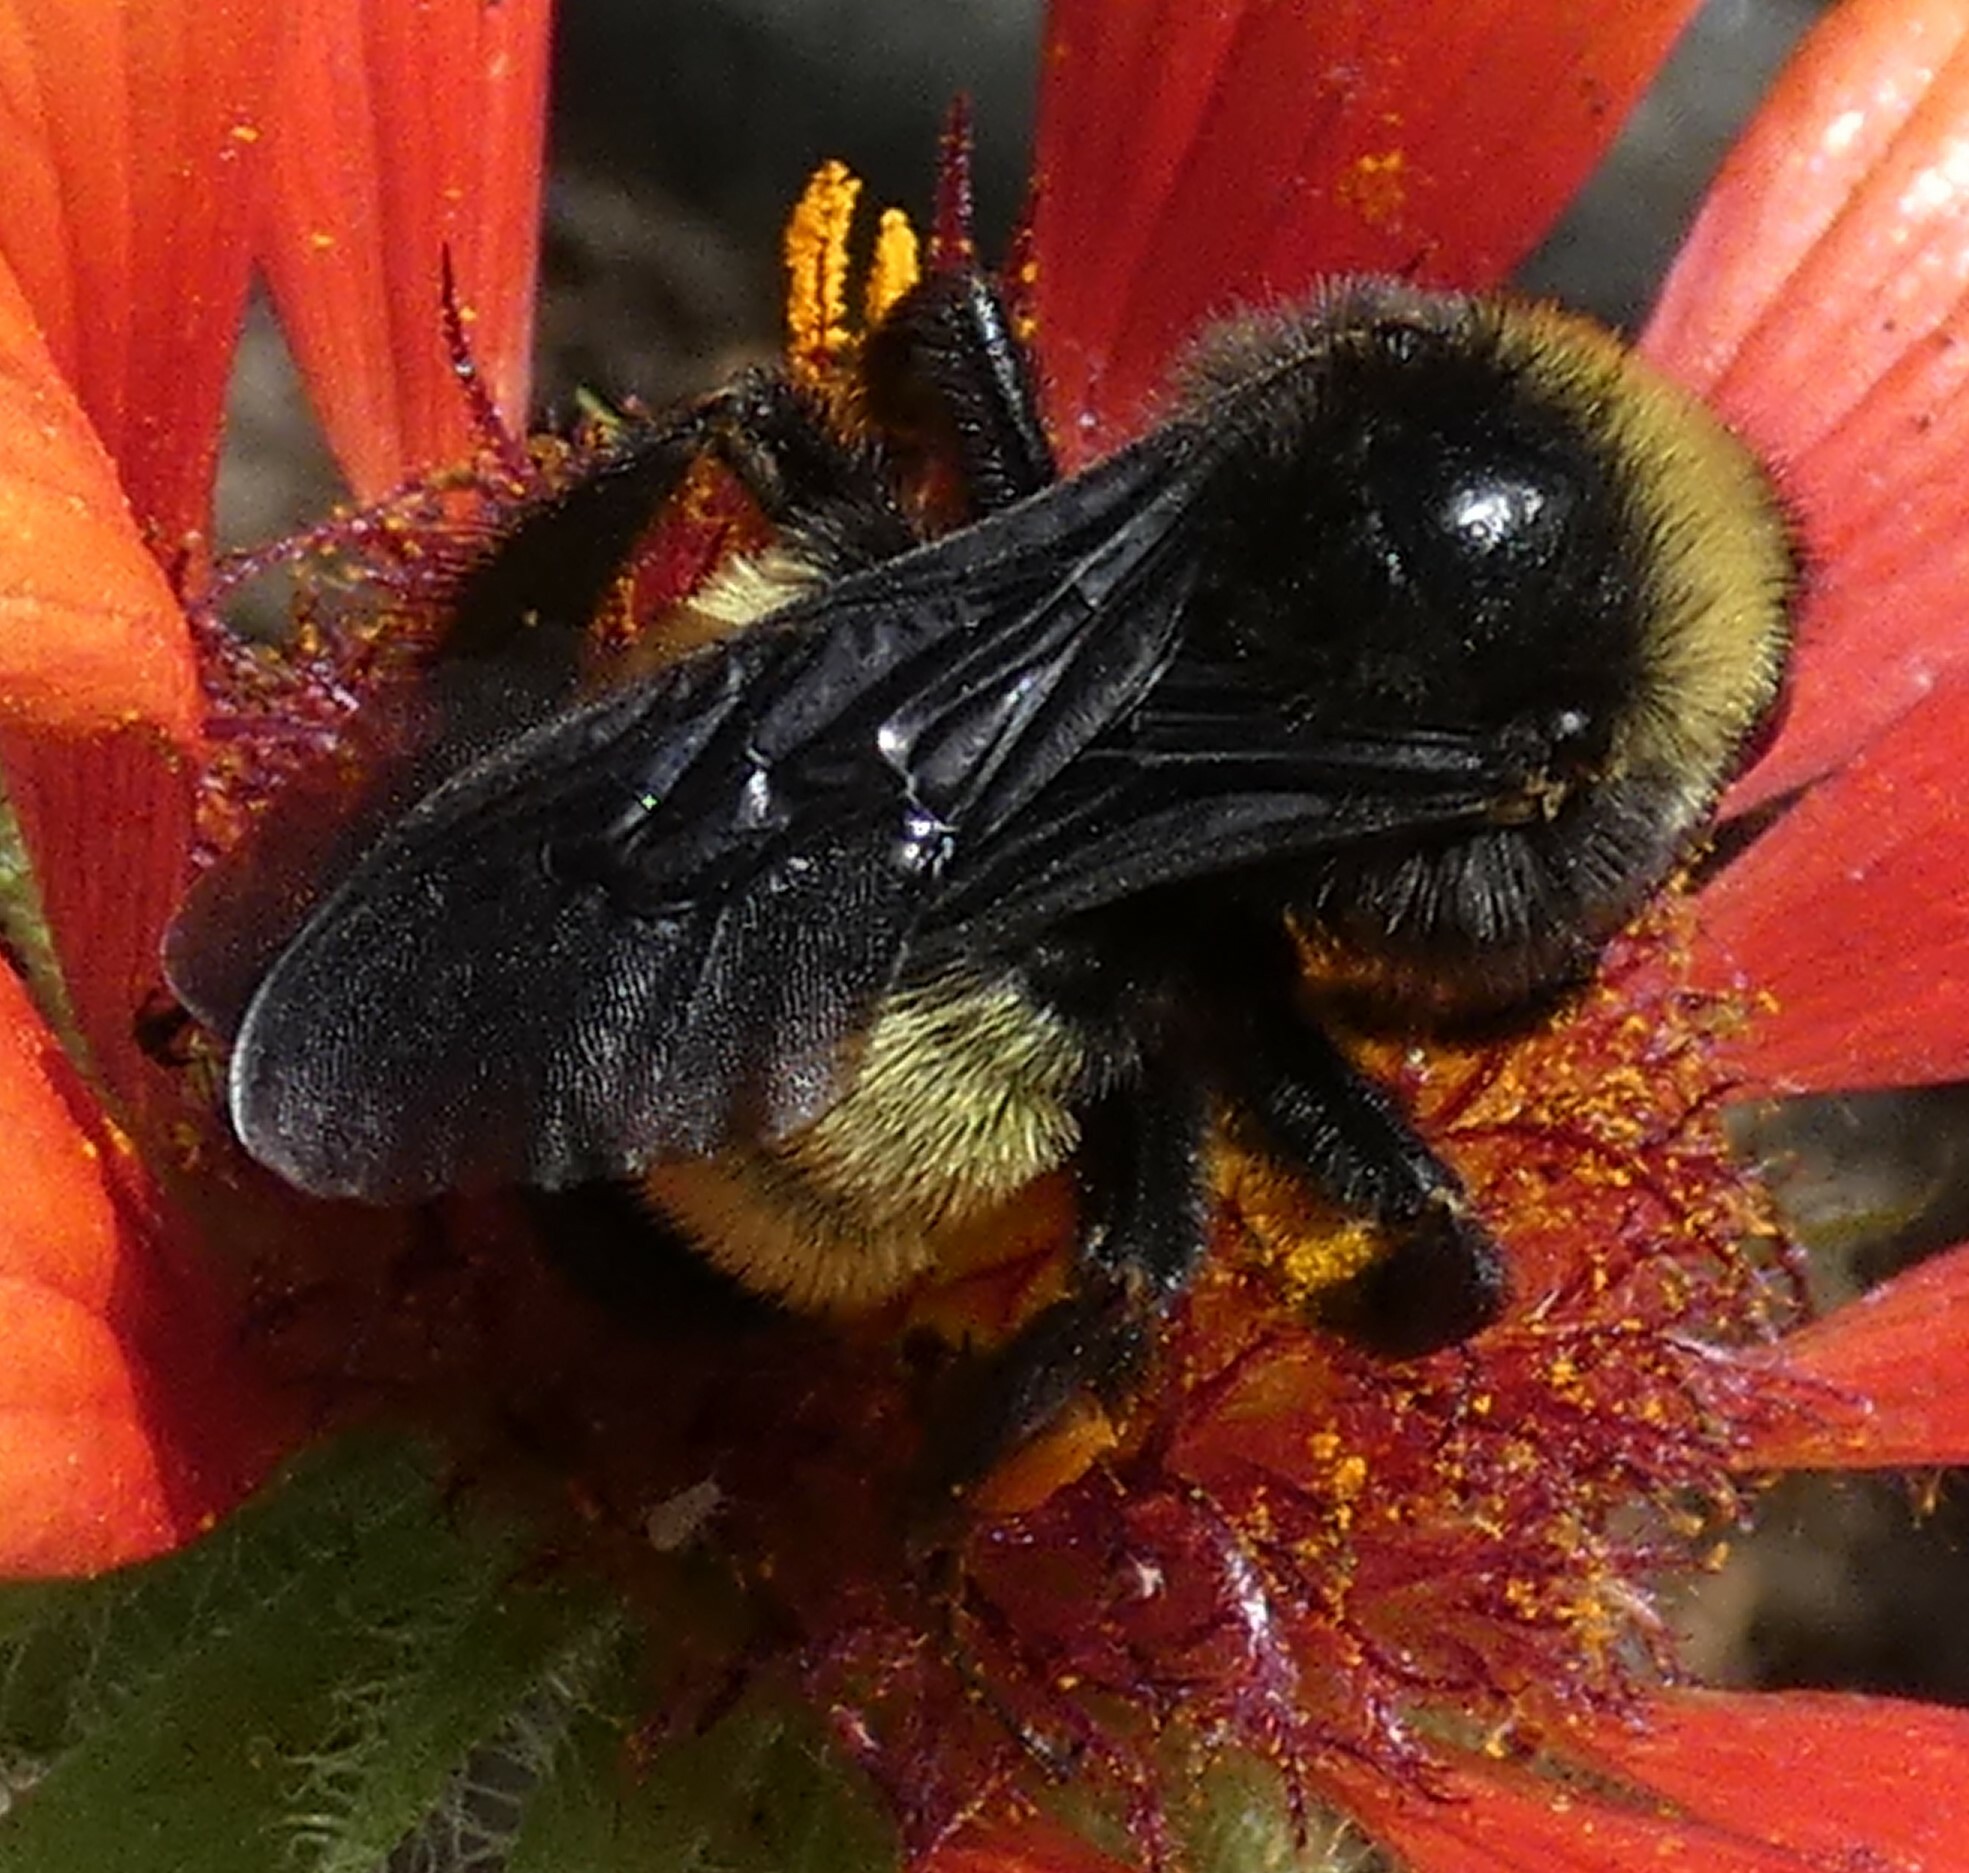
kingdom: Animalia
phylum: Arthropoda
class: Insecta
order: Hymenoptera
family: Apidae
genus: Bombus
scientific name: Bombus pensylvanicus
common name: Bumble bee
